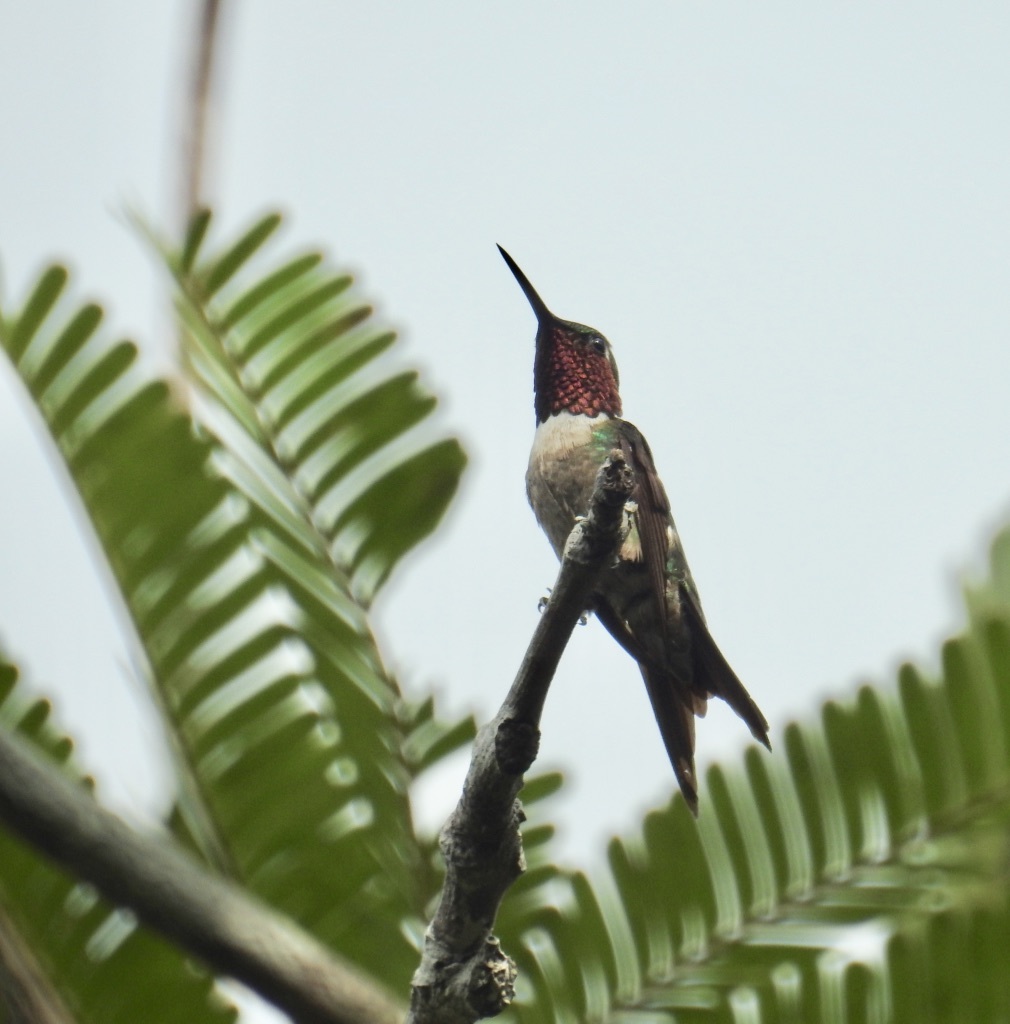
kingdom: Animalia
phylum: Chordata
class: Aves
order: Apodiformes
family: Trochilidae
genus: Calliphlox
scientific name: Calliphlox amethystina
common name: Amethyst woodstar
